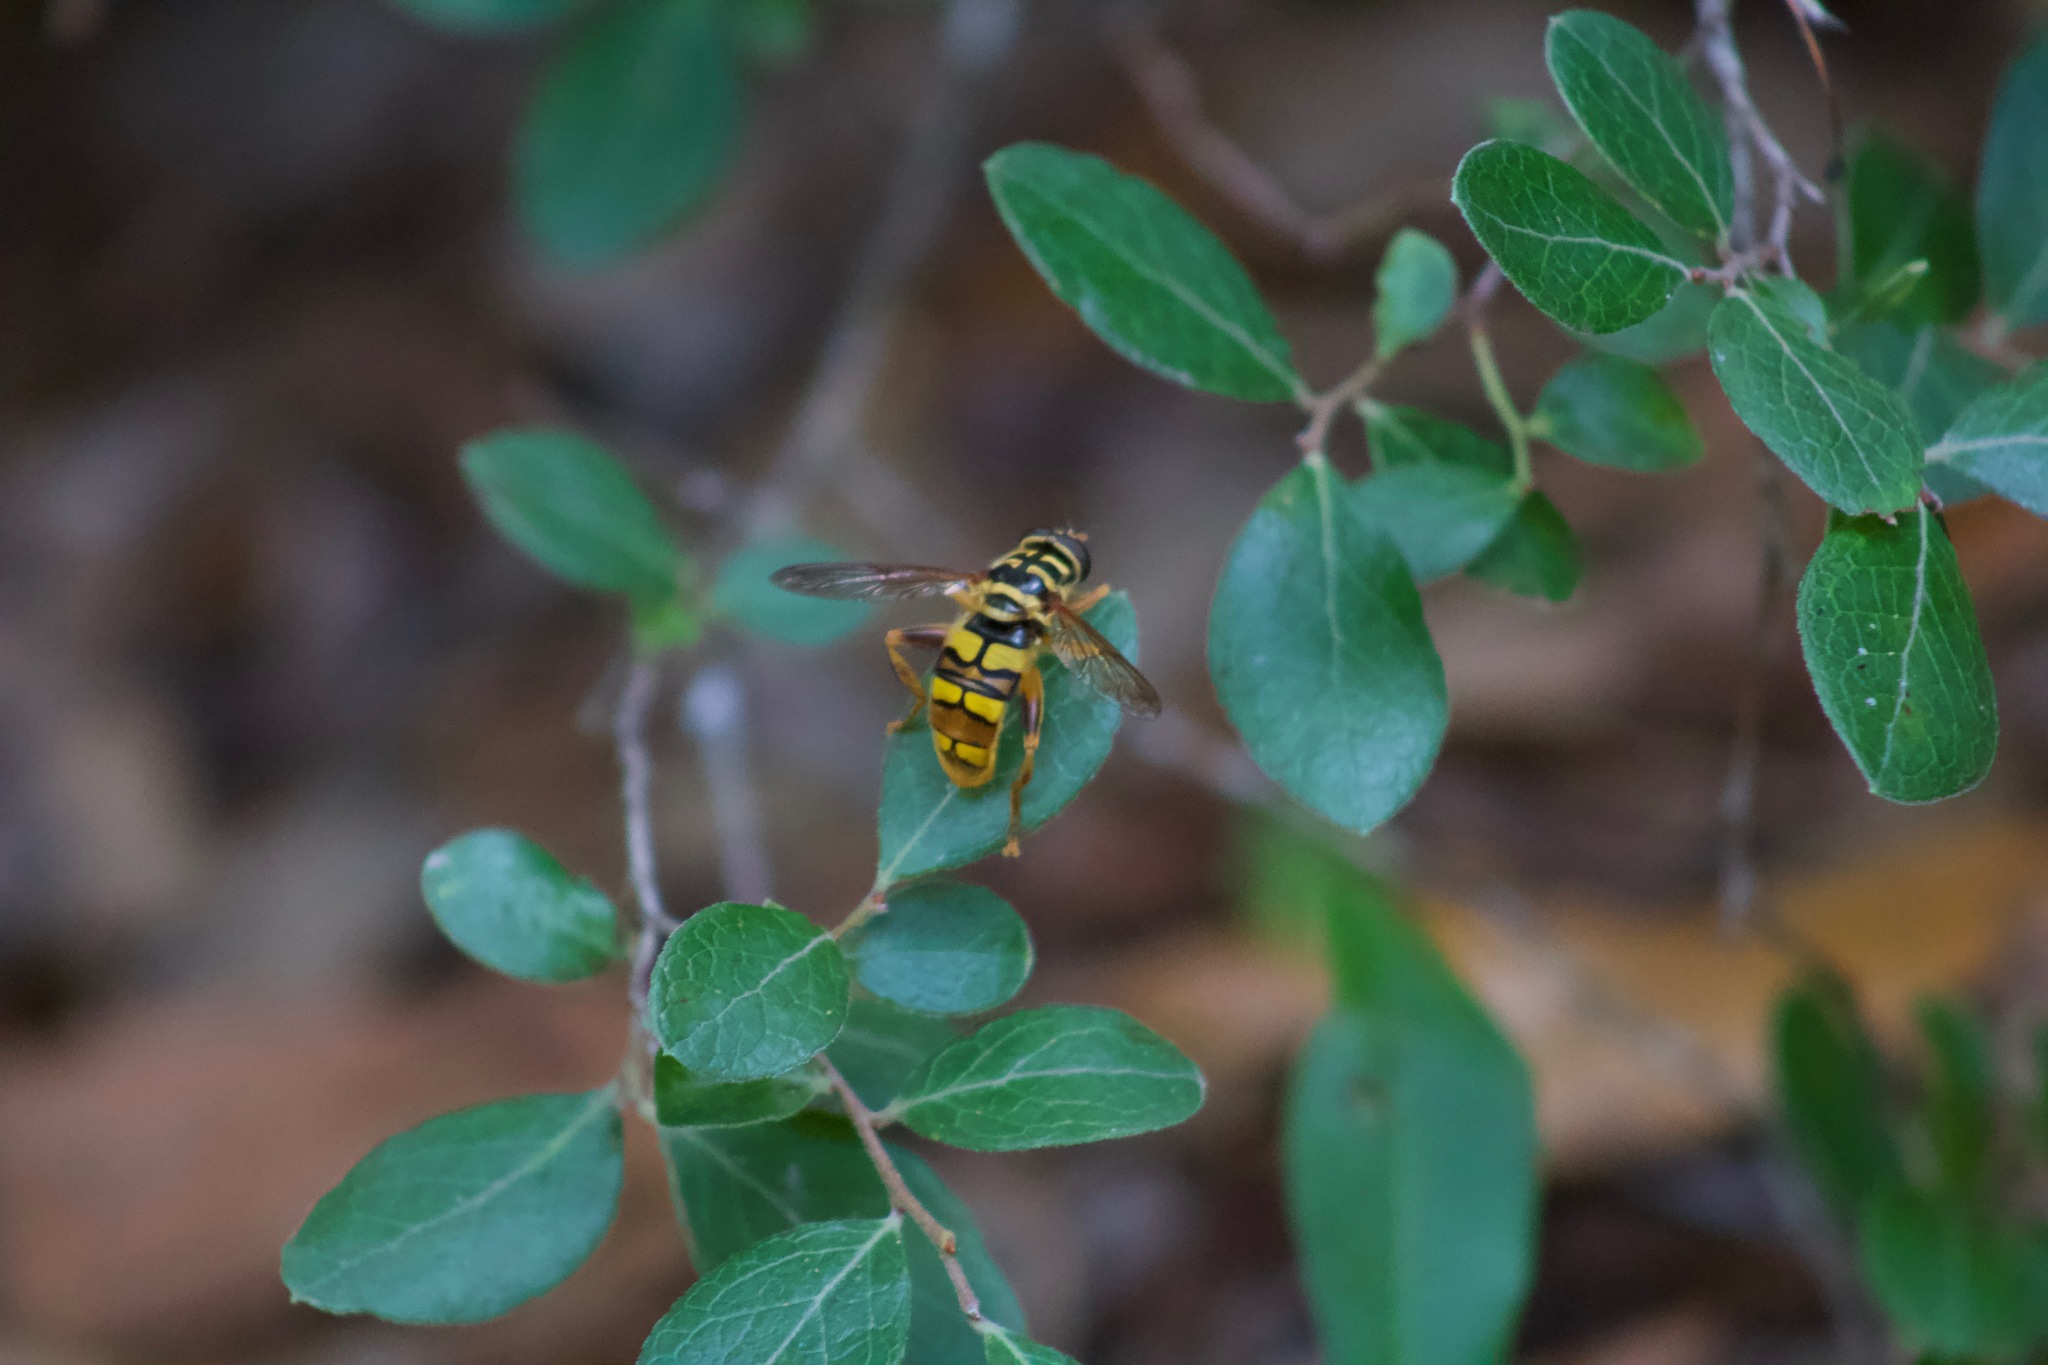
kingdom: Animalia
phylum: Arthropoda
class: Insecta
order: Diptera
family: Syrphidae
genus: Milesia
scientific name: Milesia virginiensis
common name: Virginia giant
